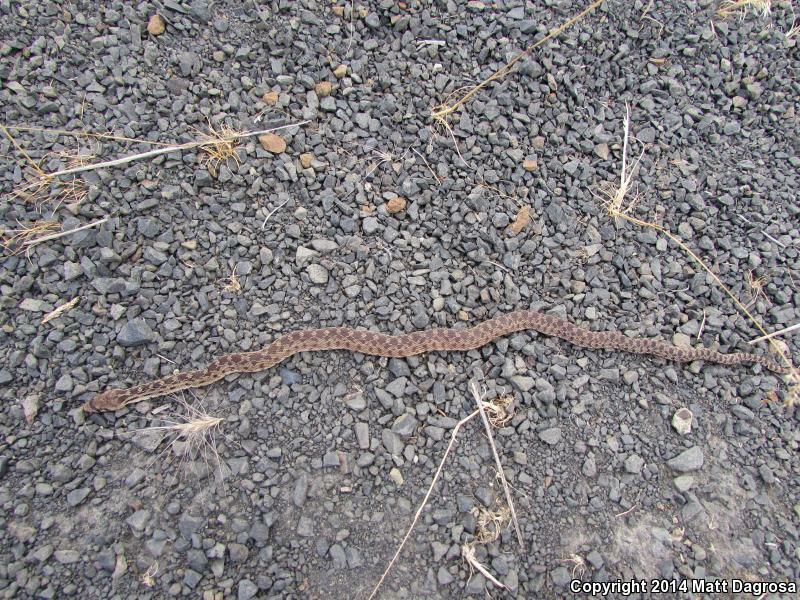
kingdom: Animalia
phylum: Chordata
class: Squamata
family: Colubridae
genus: Pituophis
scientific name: Pituophis catenifer
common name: Gopher snake
